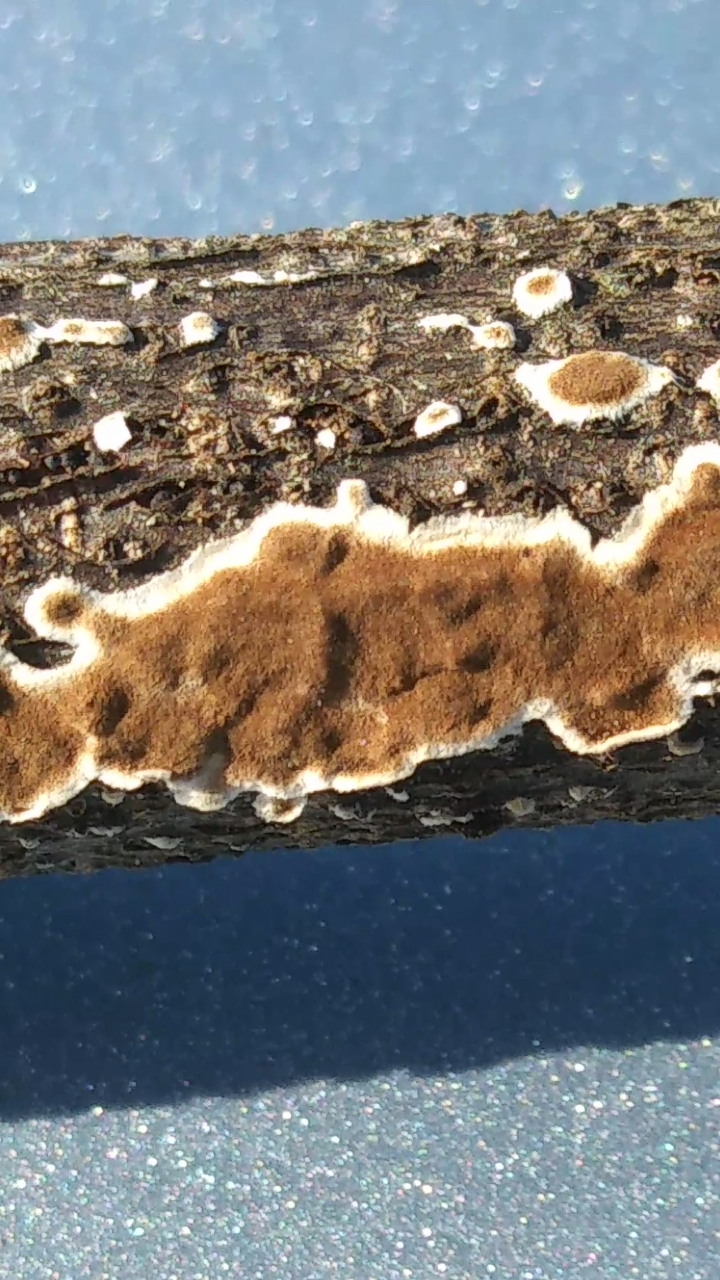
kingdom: Fungi
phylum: Basidiomycota
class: Agaricomycetes
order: Russulales
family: Peniophoraceae
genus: Peniophora
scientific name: Peniophora albobadia
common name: Giraffe spots
